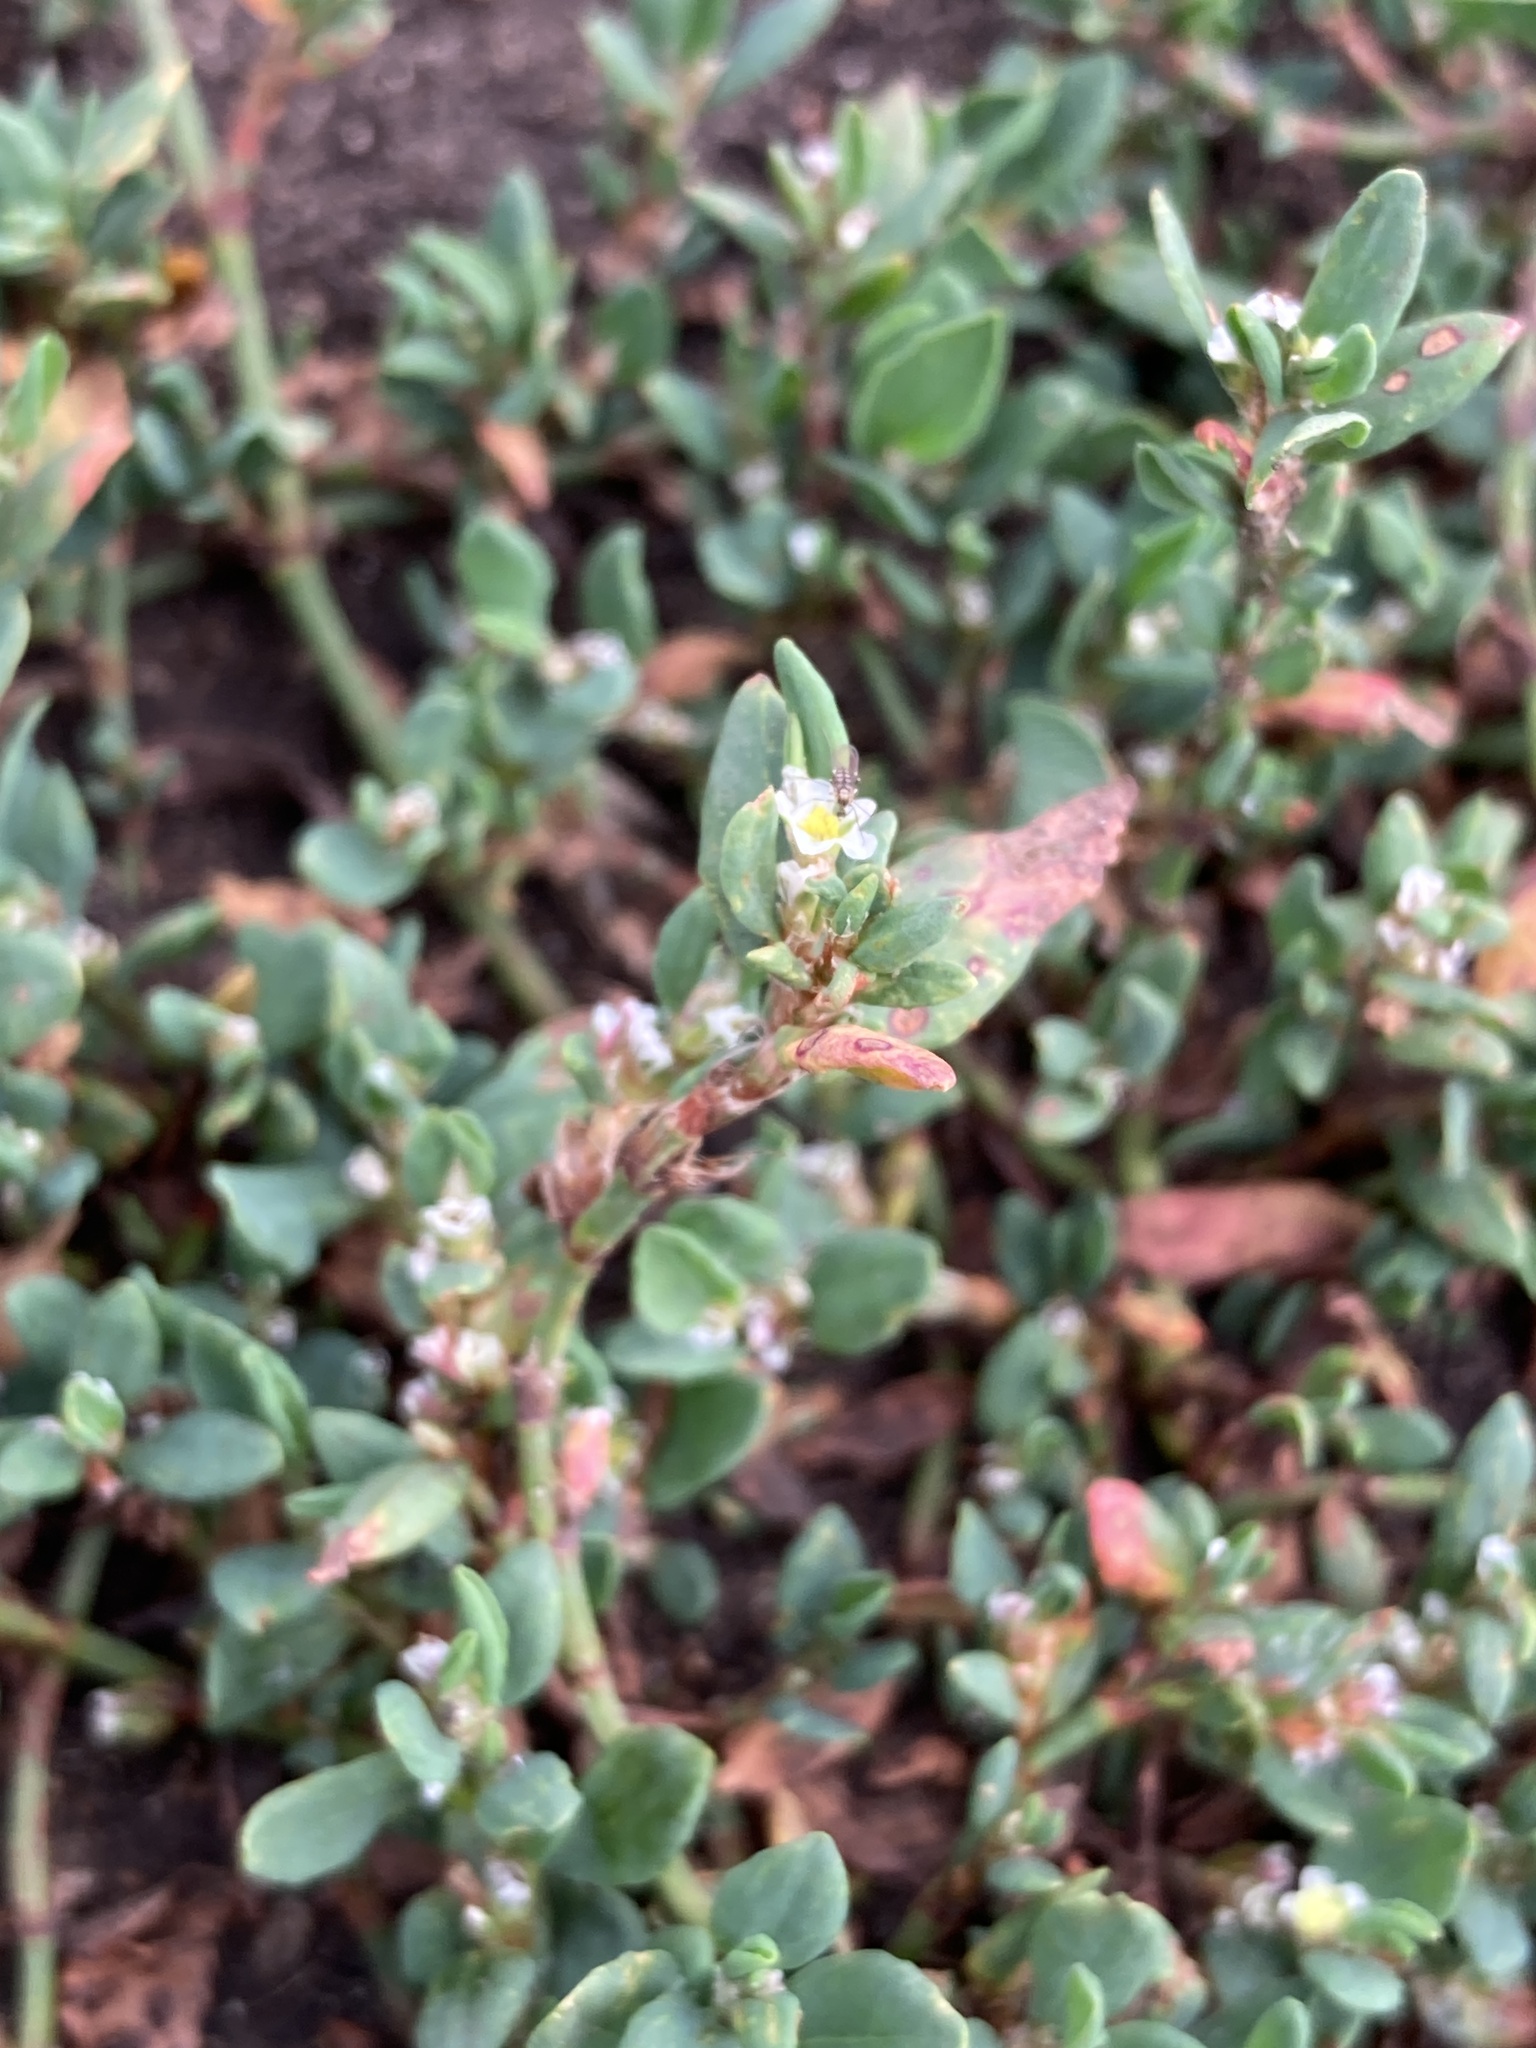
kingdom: Plantae
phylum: Tracheophyta
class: Magnoliopsida
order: Caryophyllales
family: Polygonaceae
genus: Polygonum
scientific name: Polygonum
